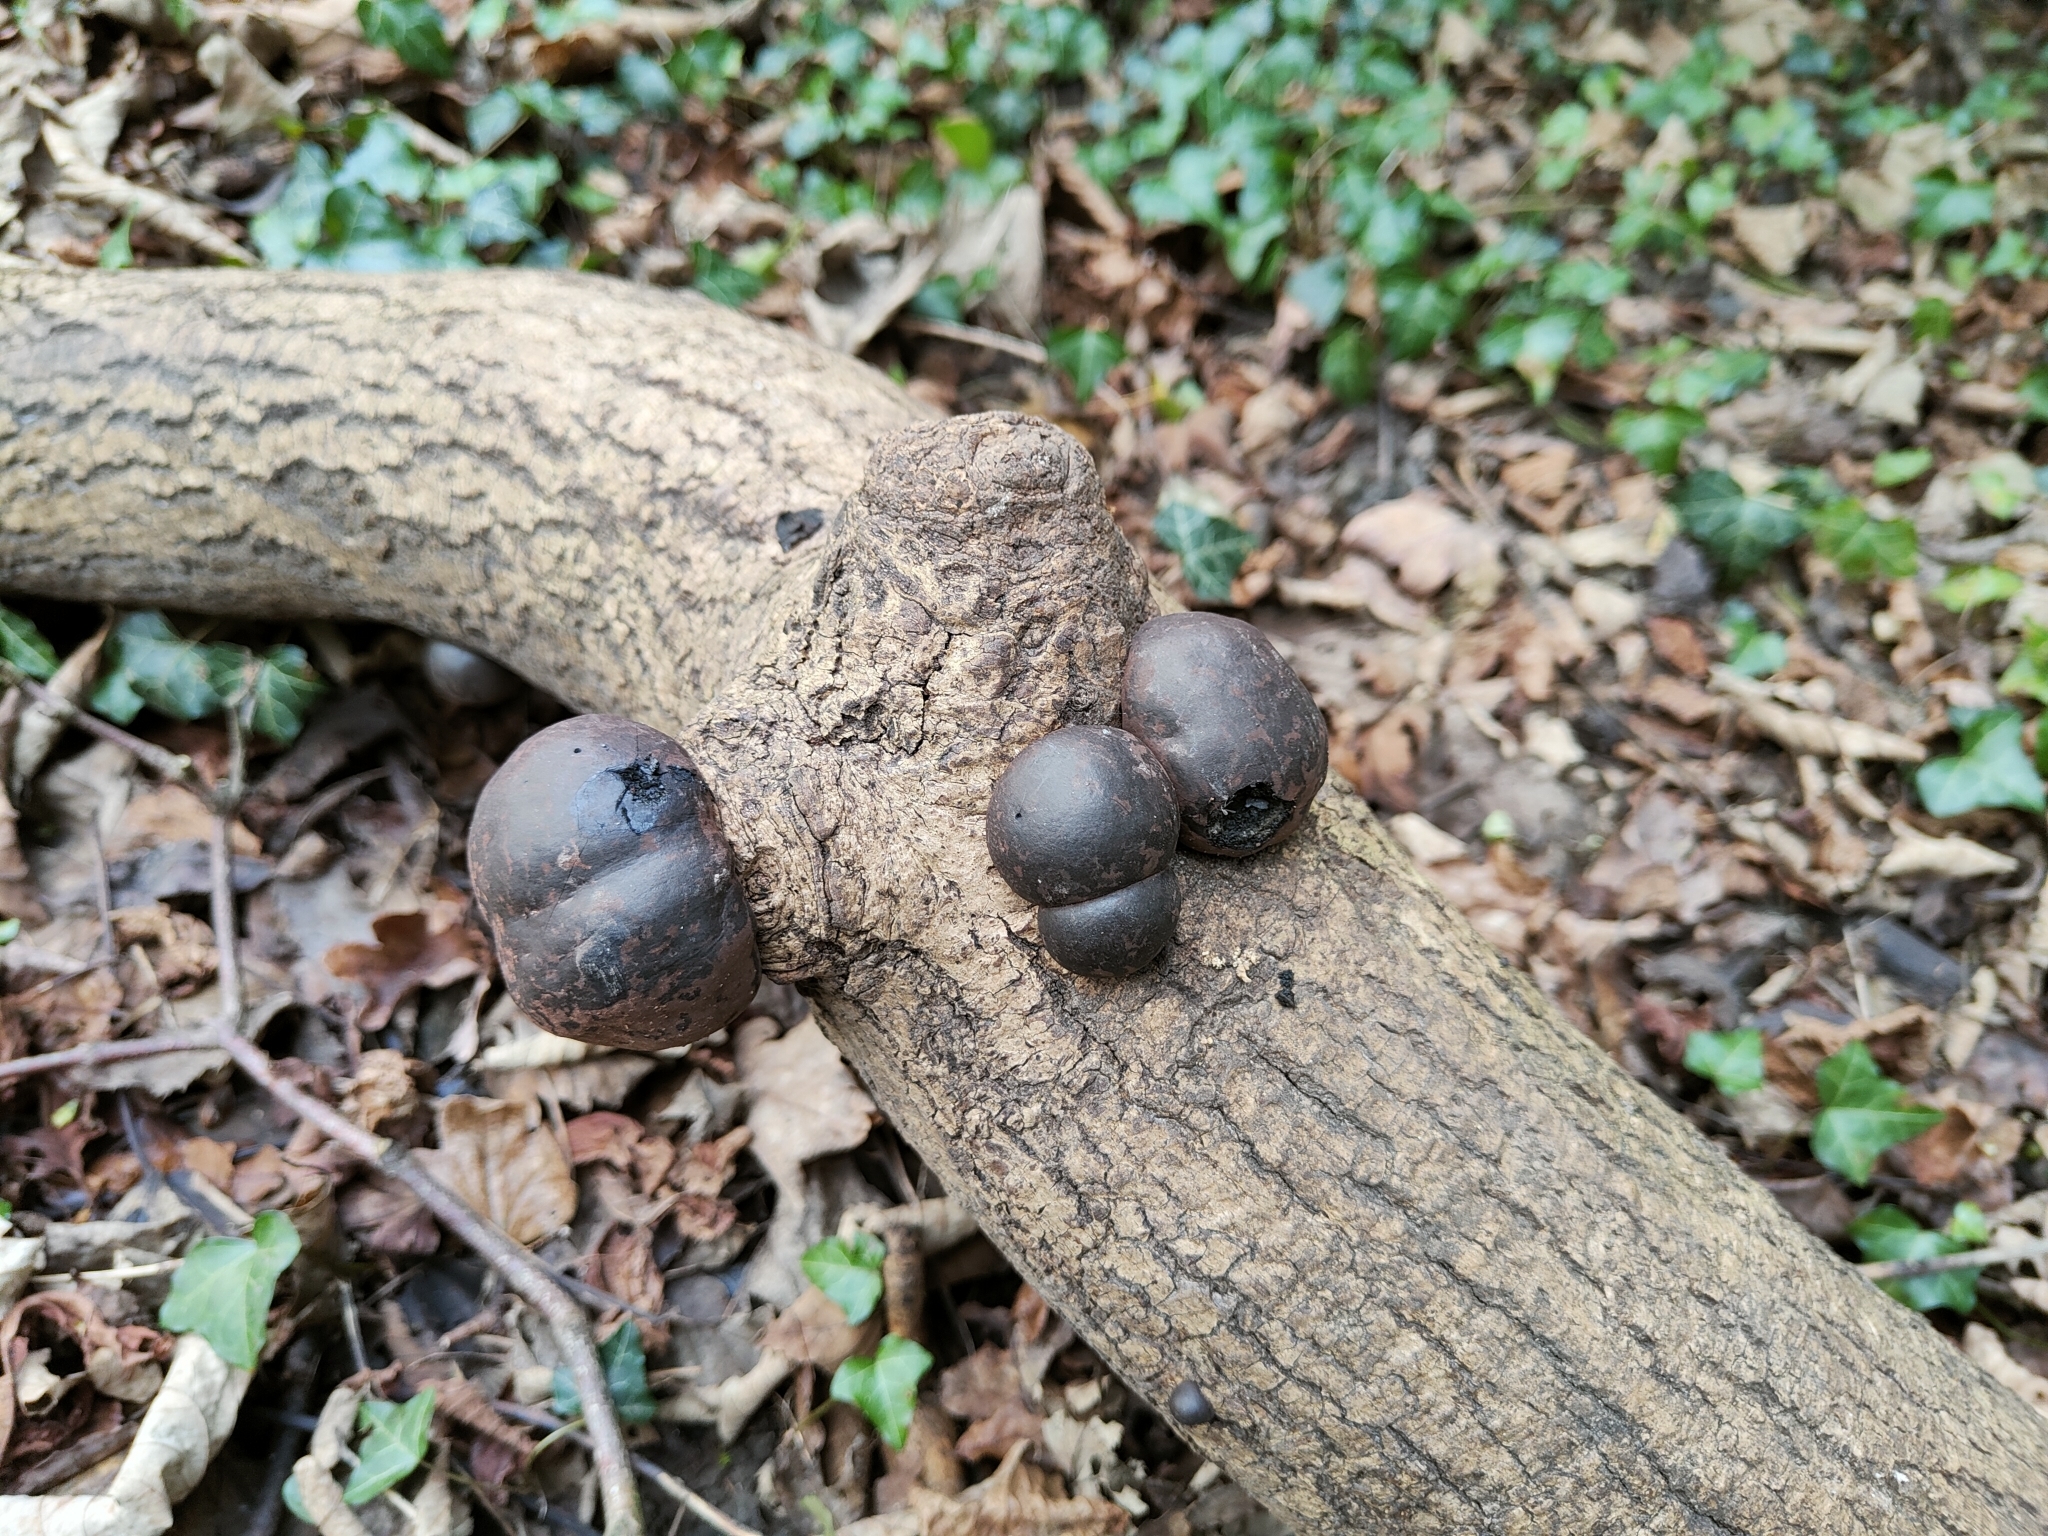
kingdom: Fungi
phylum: Ascomycota
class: Sordariomycetes
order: Xylariales
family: Hypoxylaceae
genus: Daldinia
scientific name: Daldinia concentrica
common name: Cramp balls
